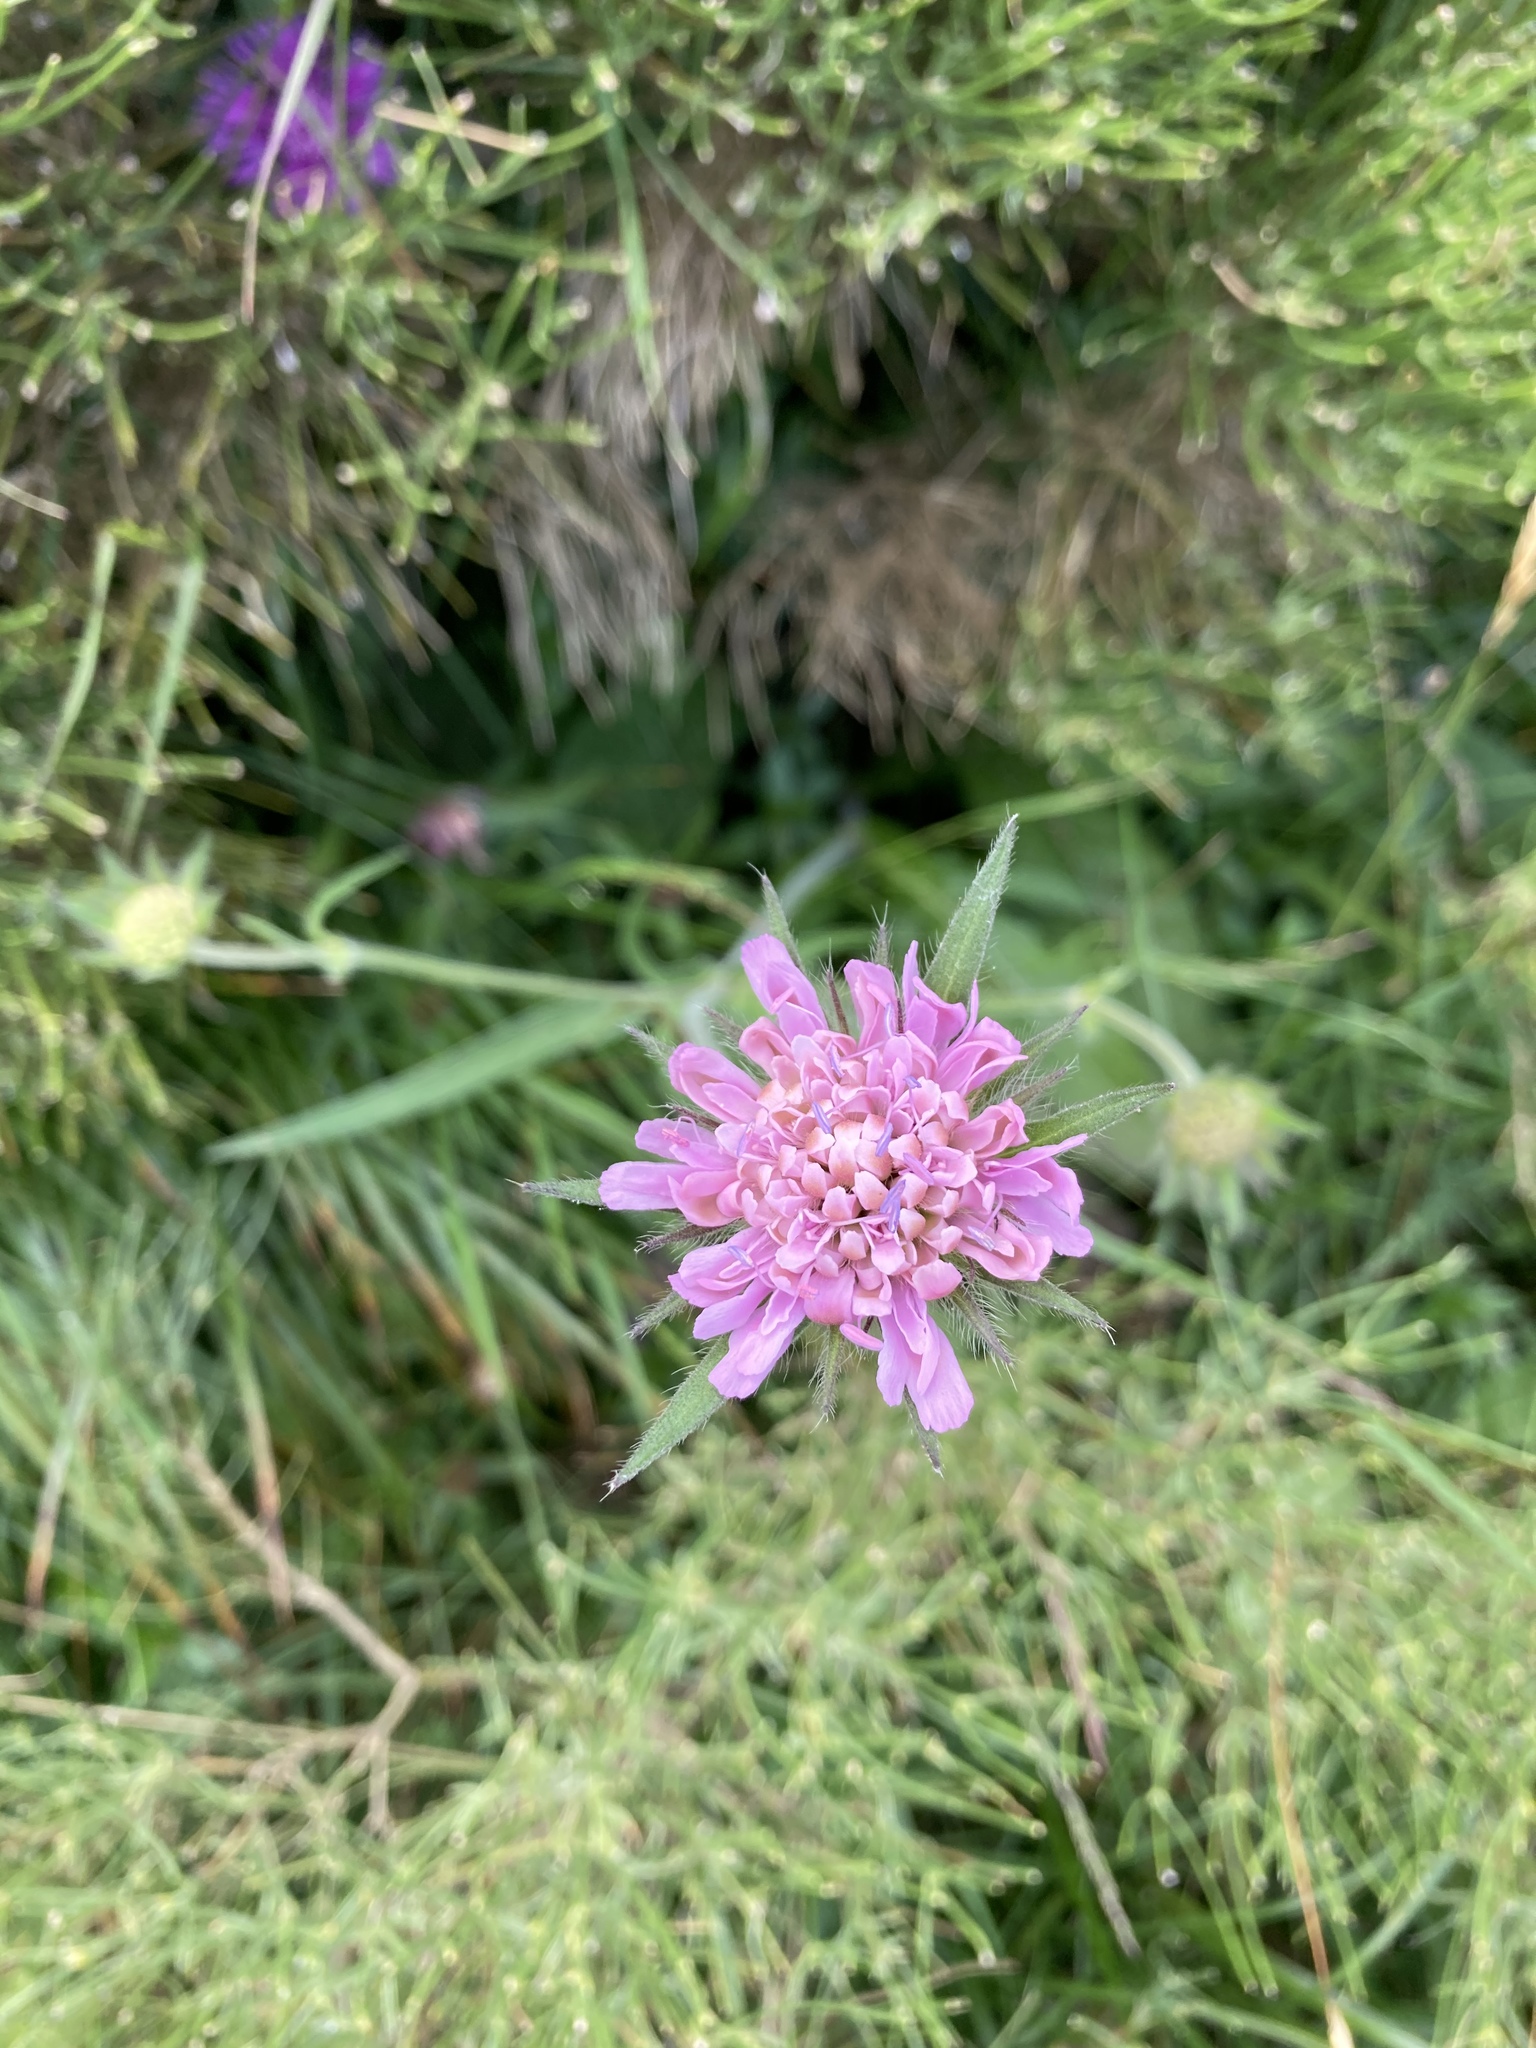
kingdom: Plantae
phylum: Tracheophyta
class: Magnoliopsida
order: Dipsacales
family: Caprifoliaceae
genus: Knautia
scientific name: Knautia transalpina
